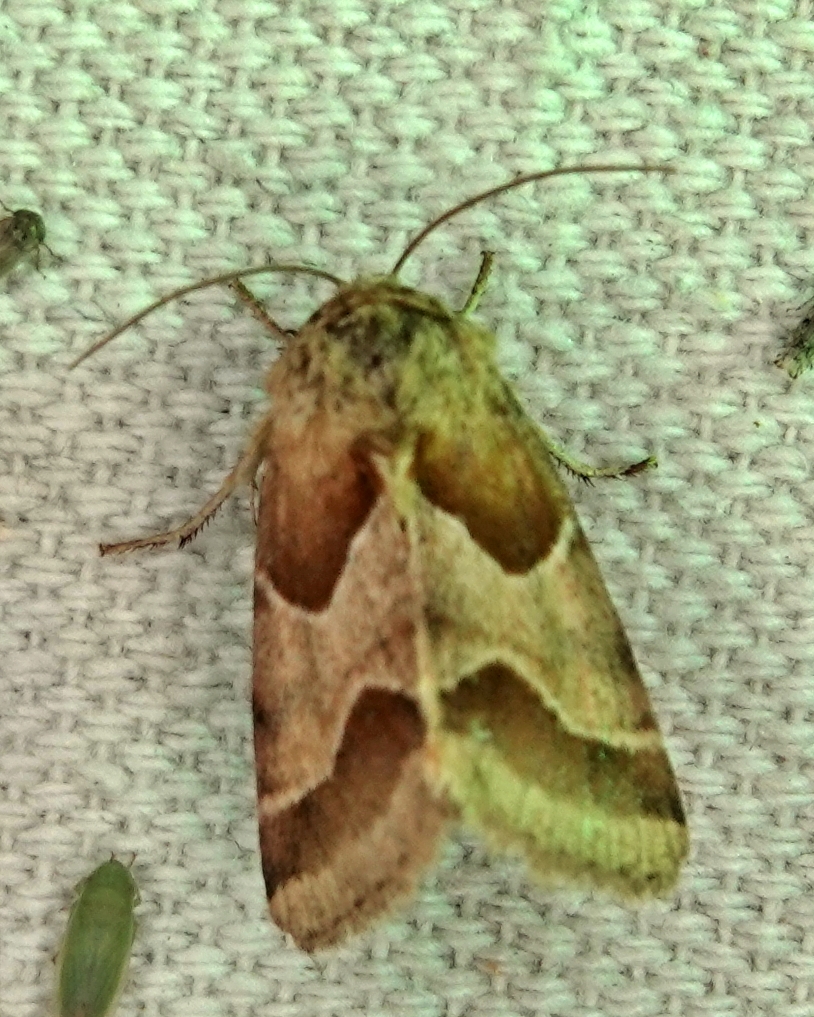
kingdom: Animalia
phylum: Arthropoda
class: Insecta
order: Lepidoptera
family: Noctuidae
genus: Schinia
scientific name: Schinia jaguarina
